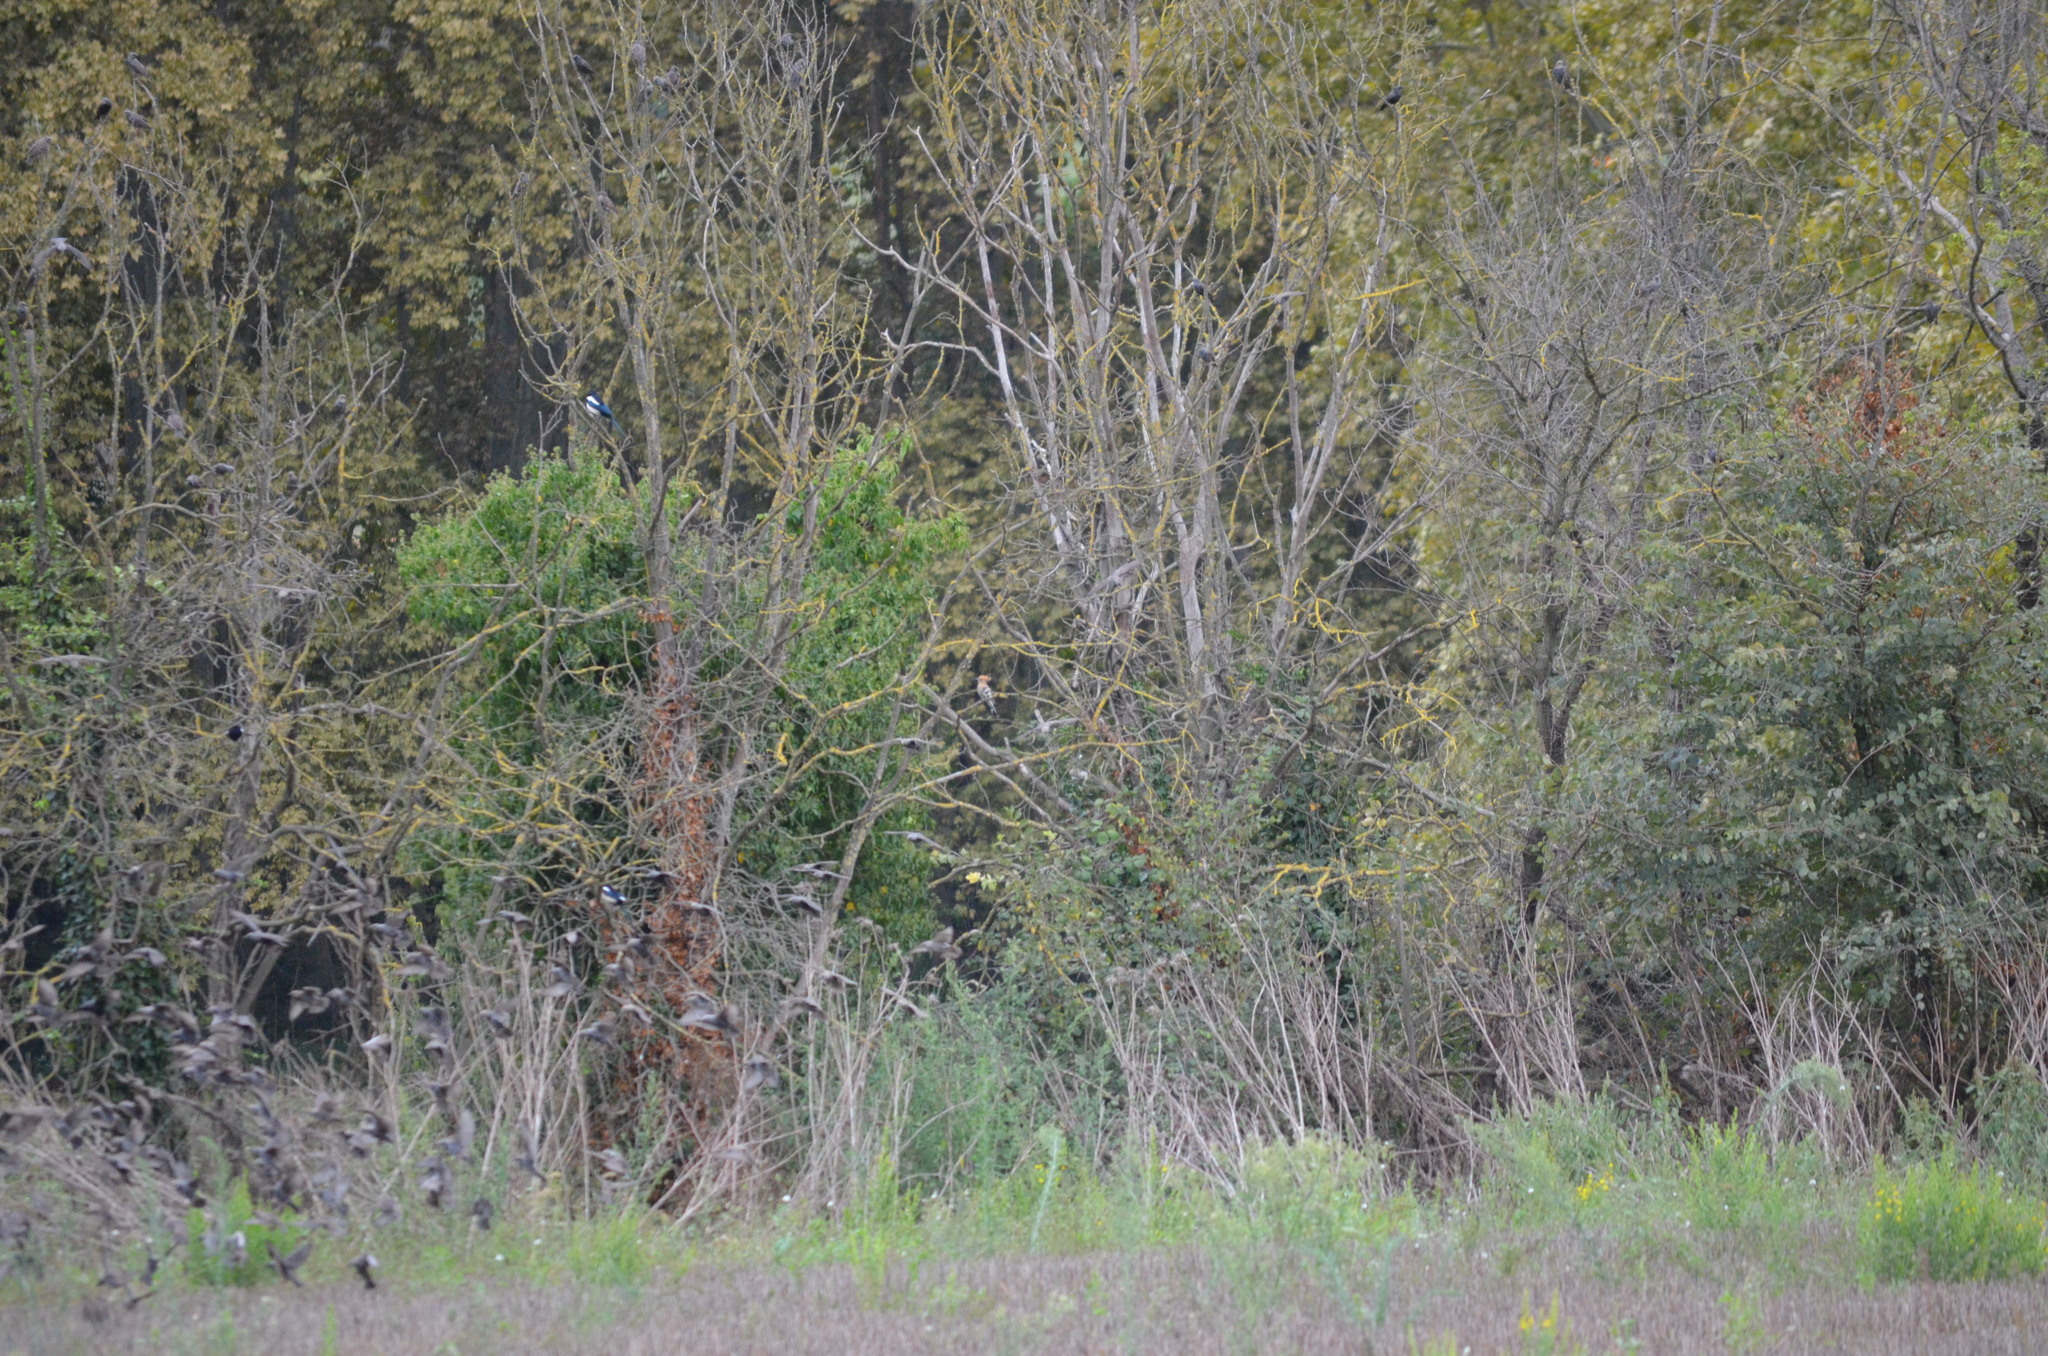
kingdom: Animalia
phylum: Chordata
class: Aves
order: Bucerotiformes
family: Upupidae
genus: Upupa
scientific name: Upupa epops
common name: Eurasian hoopoe
